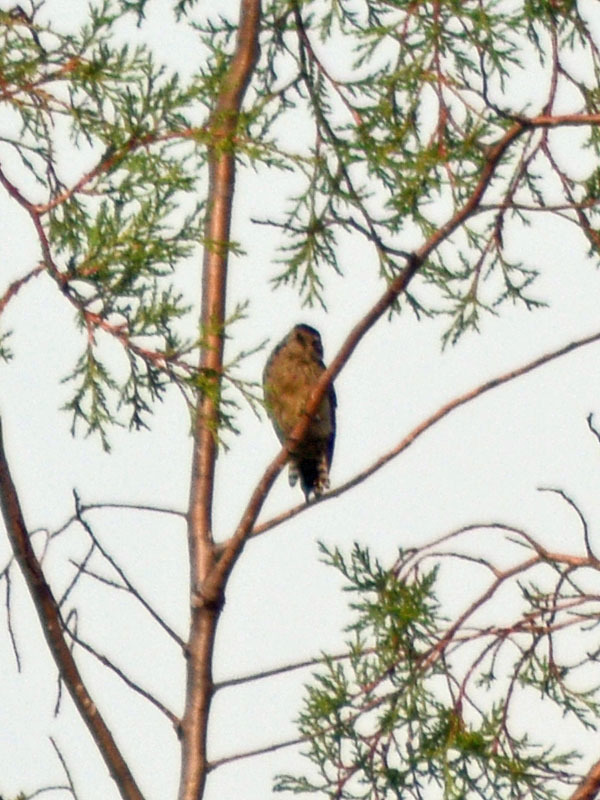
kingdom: Animalia
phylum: Chordata
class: Aves
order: Piciformes
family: Picidae
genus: Dryobates
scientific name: Dryobates scalaris
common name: Ladder-backed woodpecker
